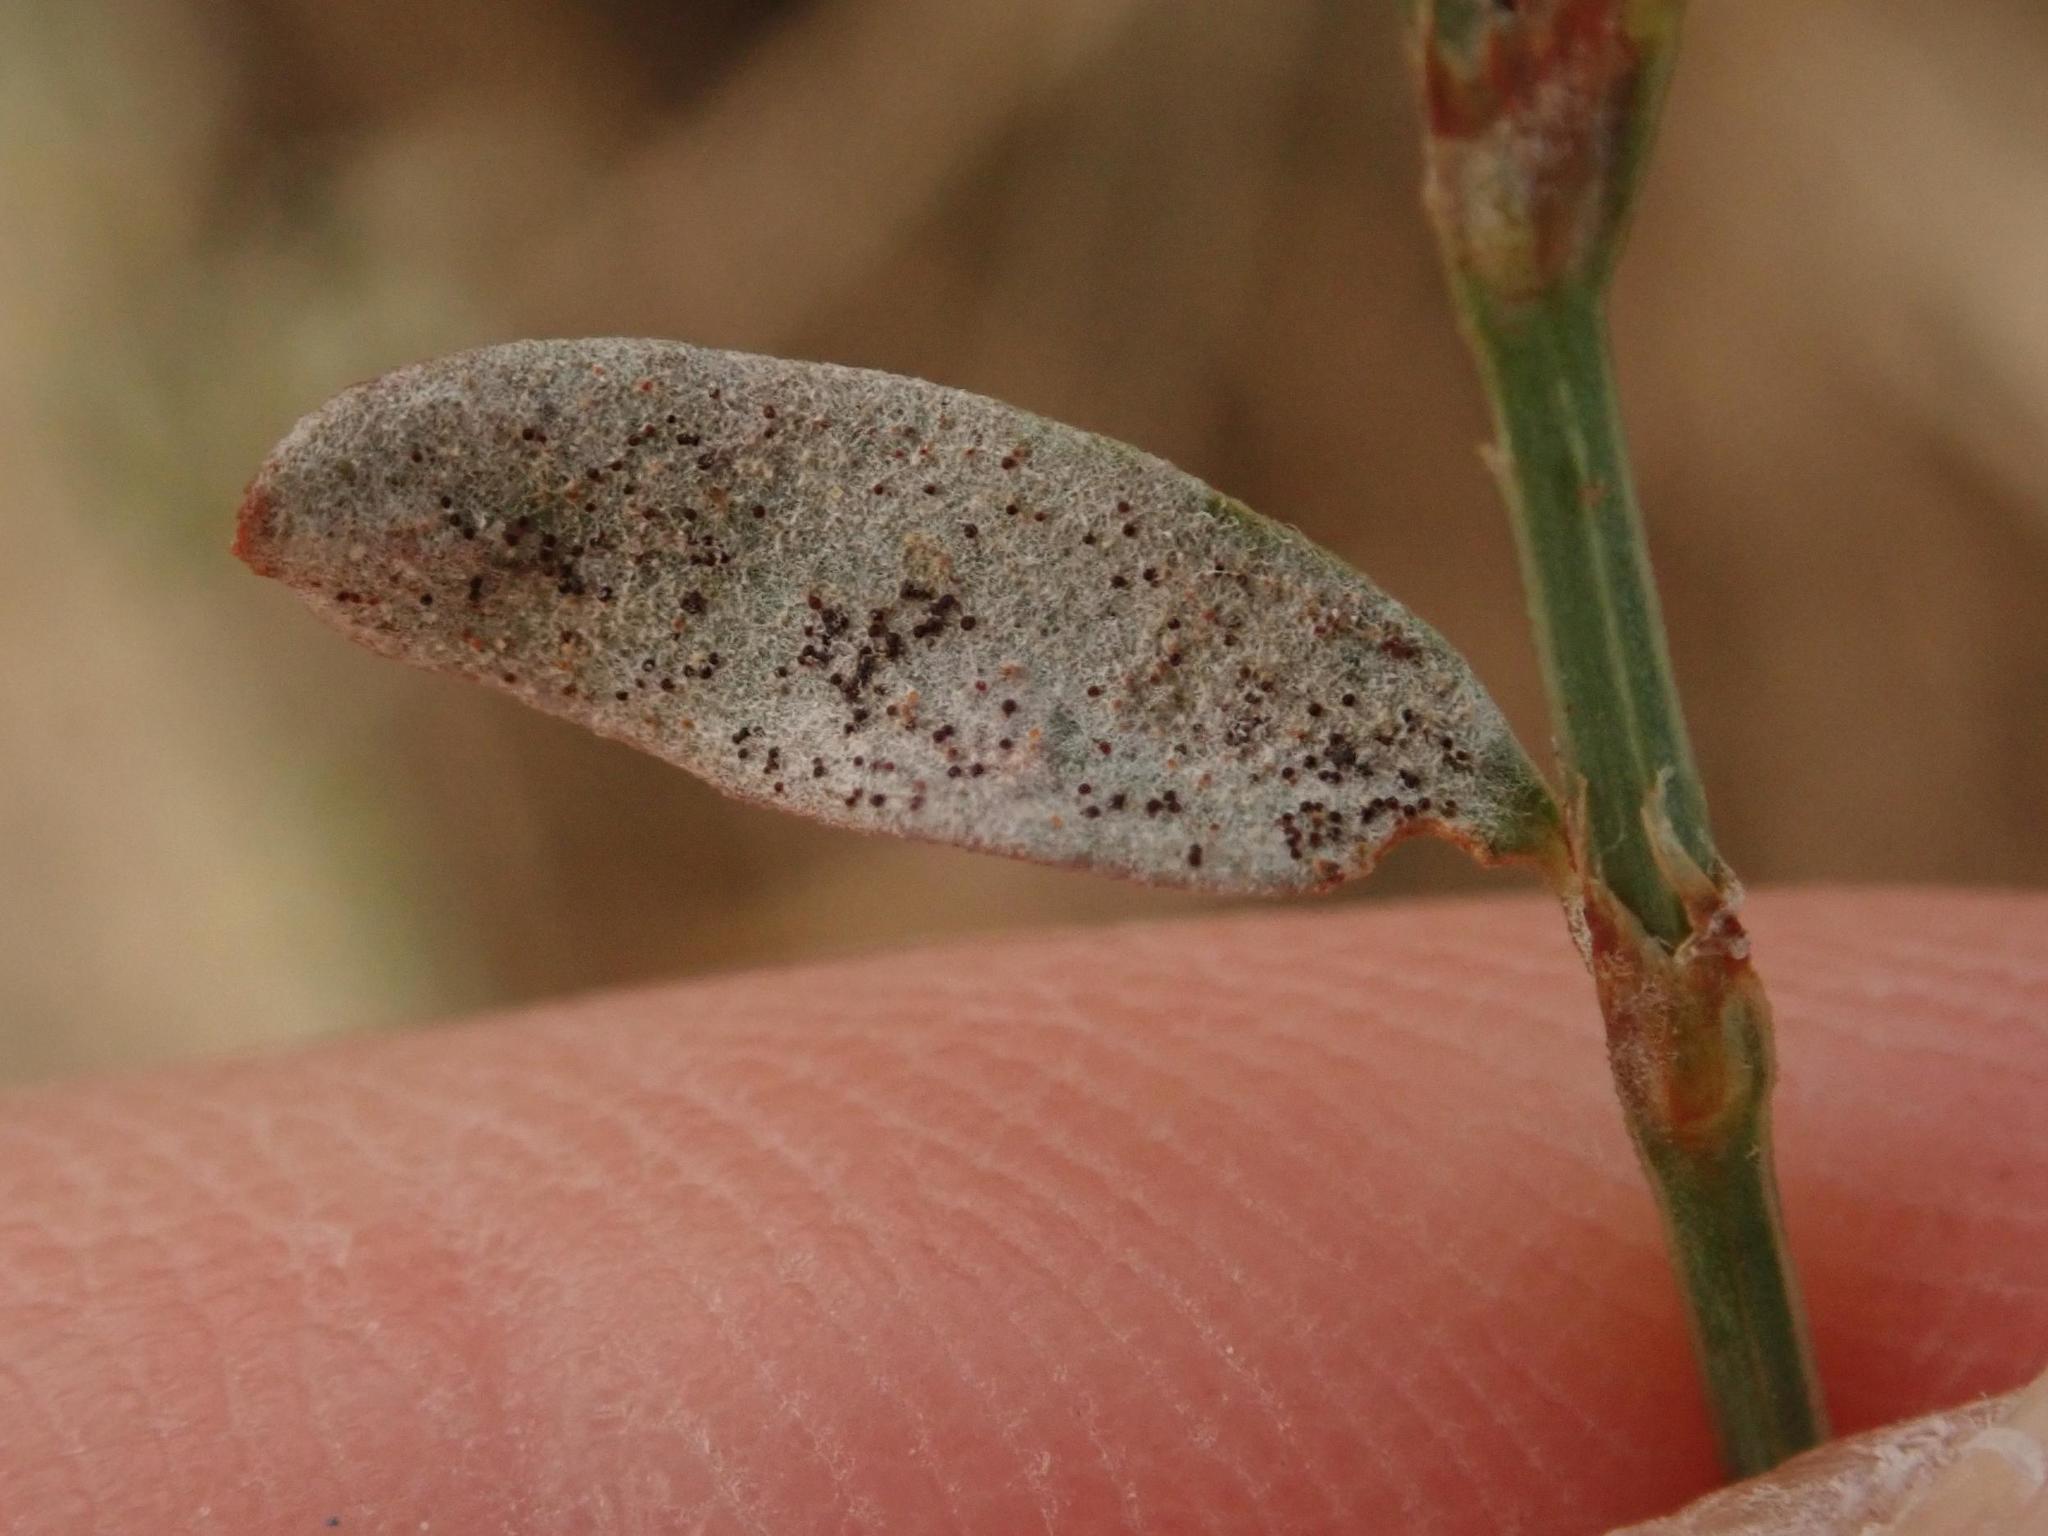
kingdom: Fungi
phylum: Ascomycota
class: Leotiomycetes
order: Helotiales
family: Erysiphaceae
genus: Erysiphe
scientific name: Erysiphe polygoni
